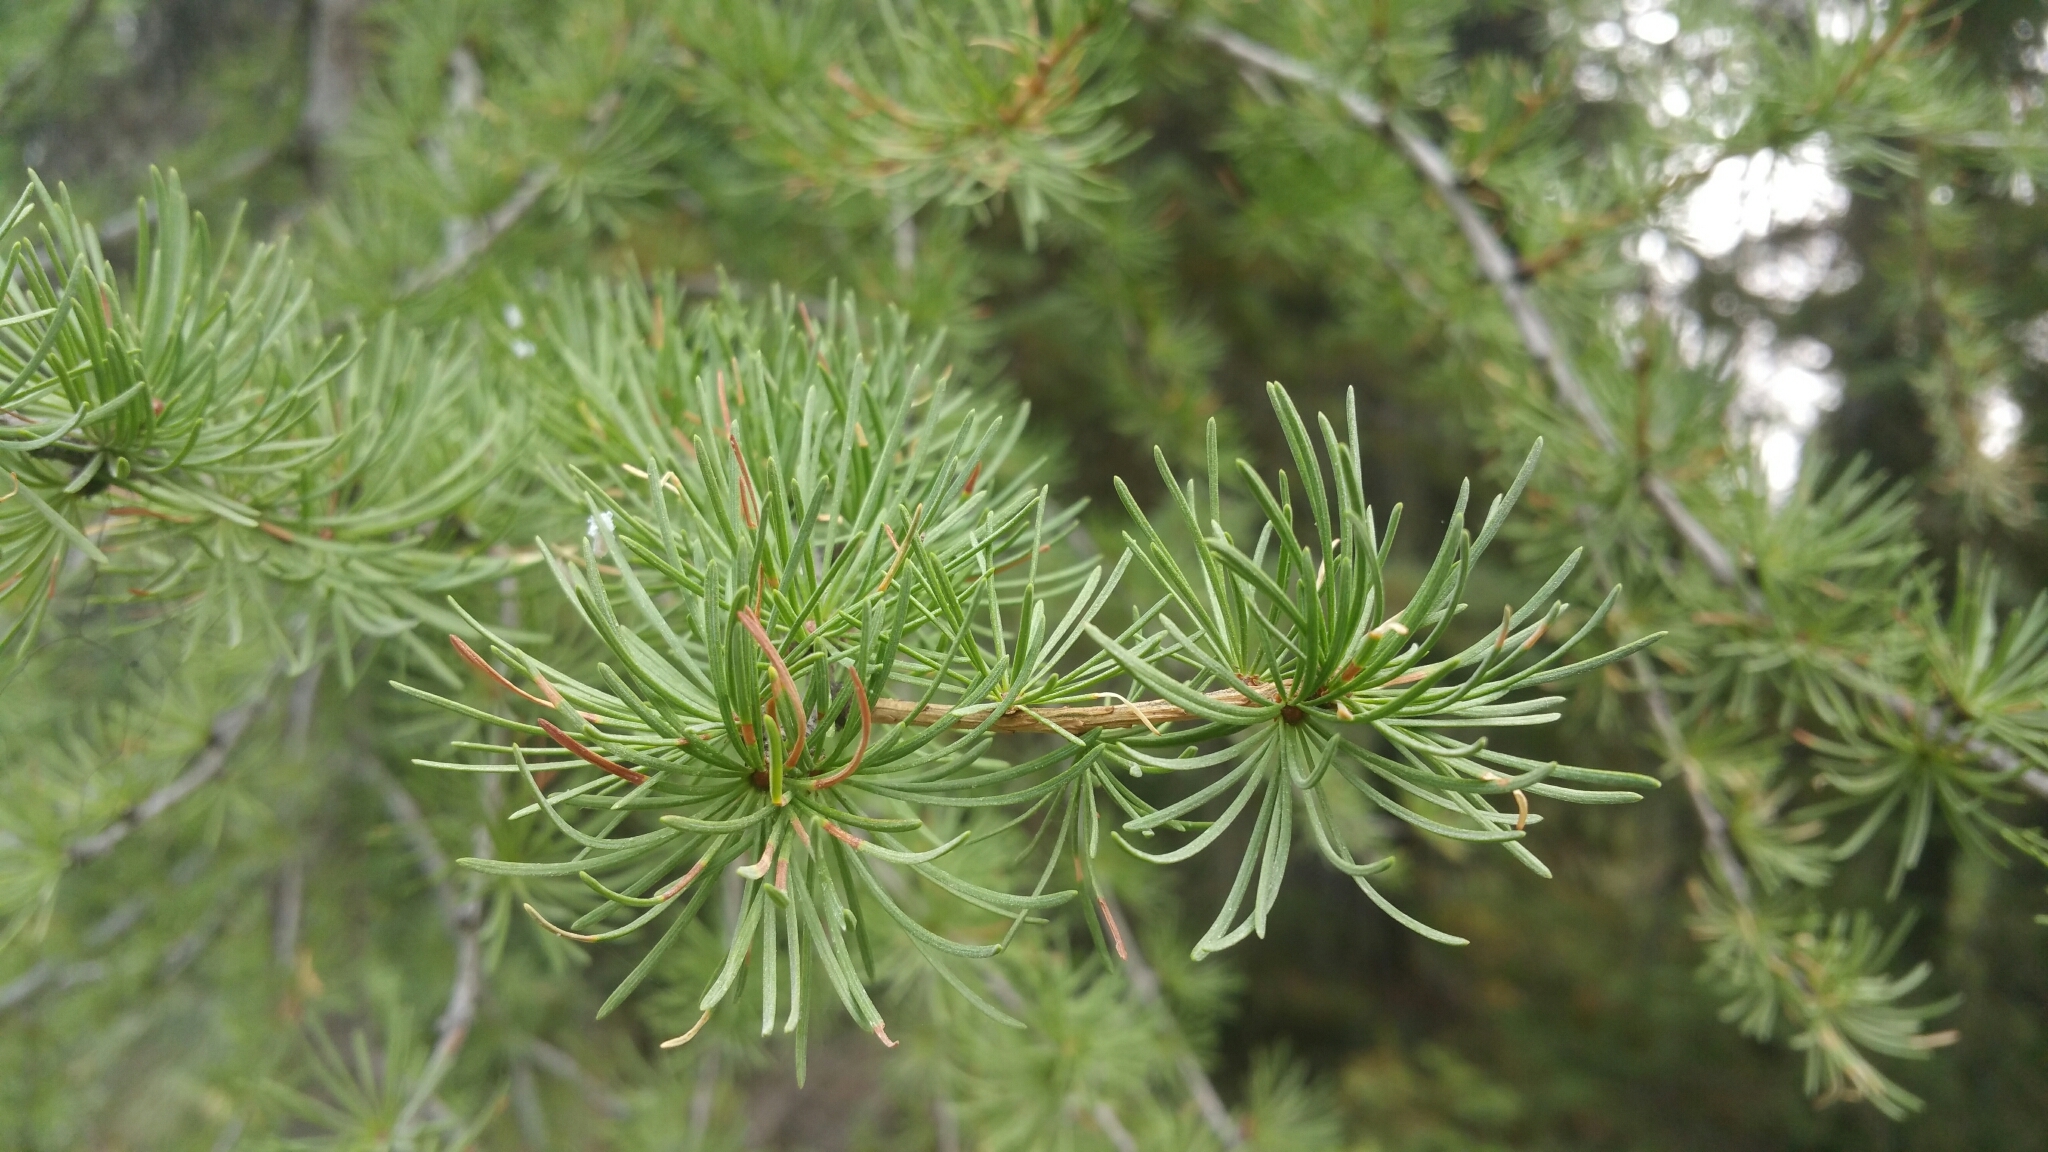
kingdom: Plantae
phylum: Tracheophyta
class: Pinopsida
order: Pinales
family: Pinaceae
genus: Larix
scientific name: Larix occidentalis
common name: Western larch
